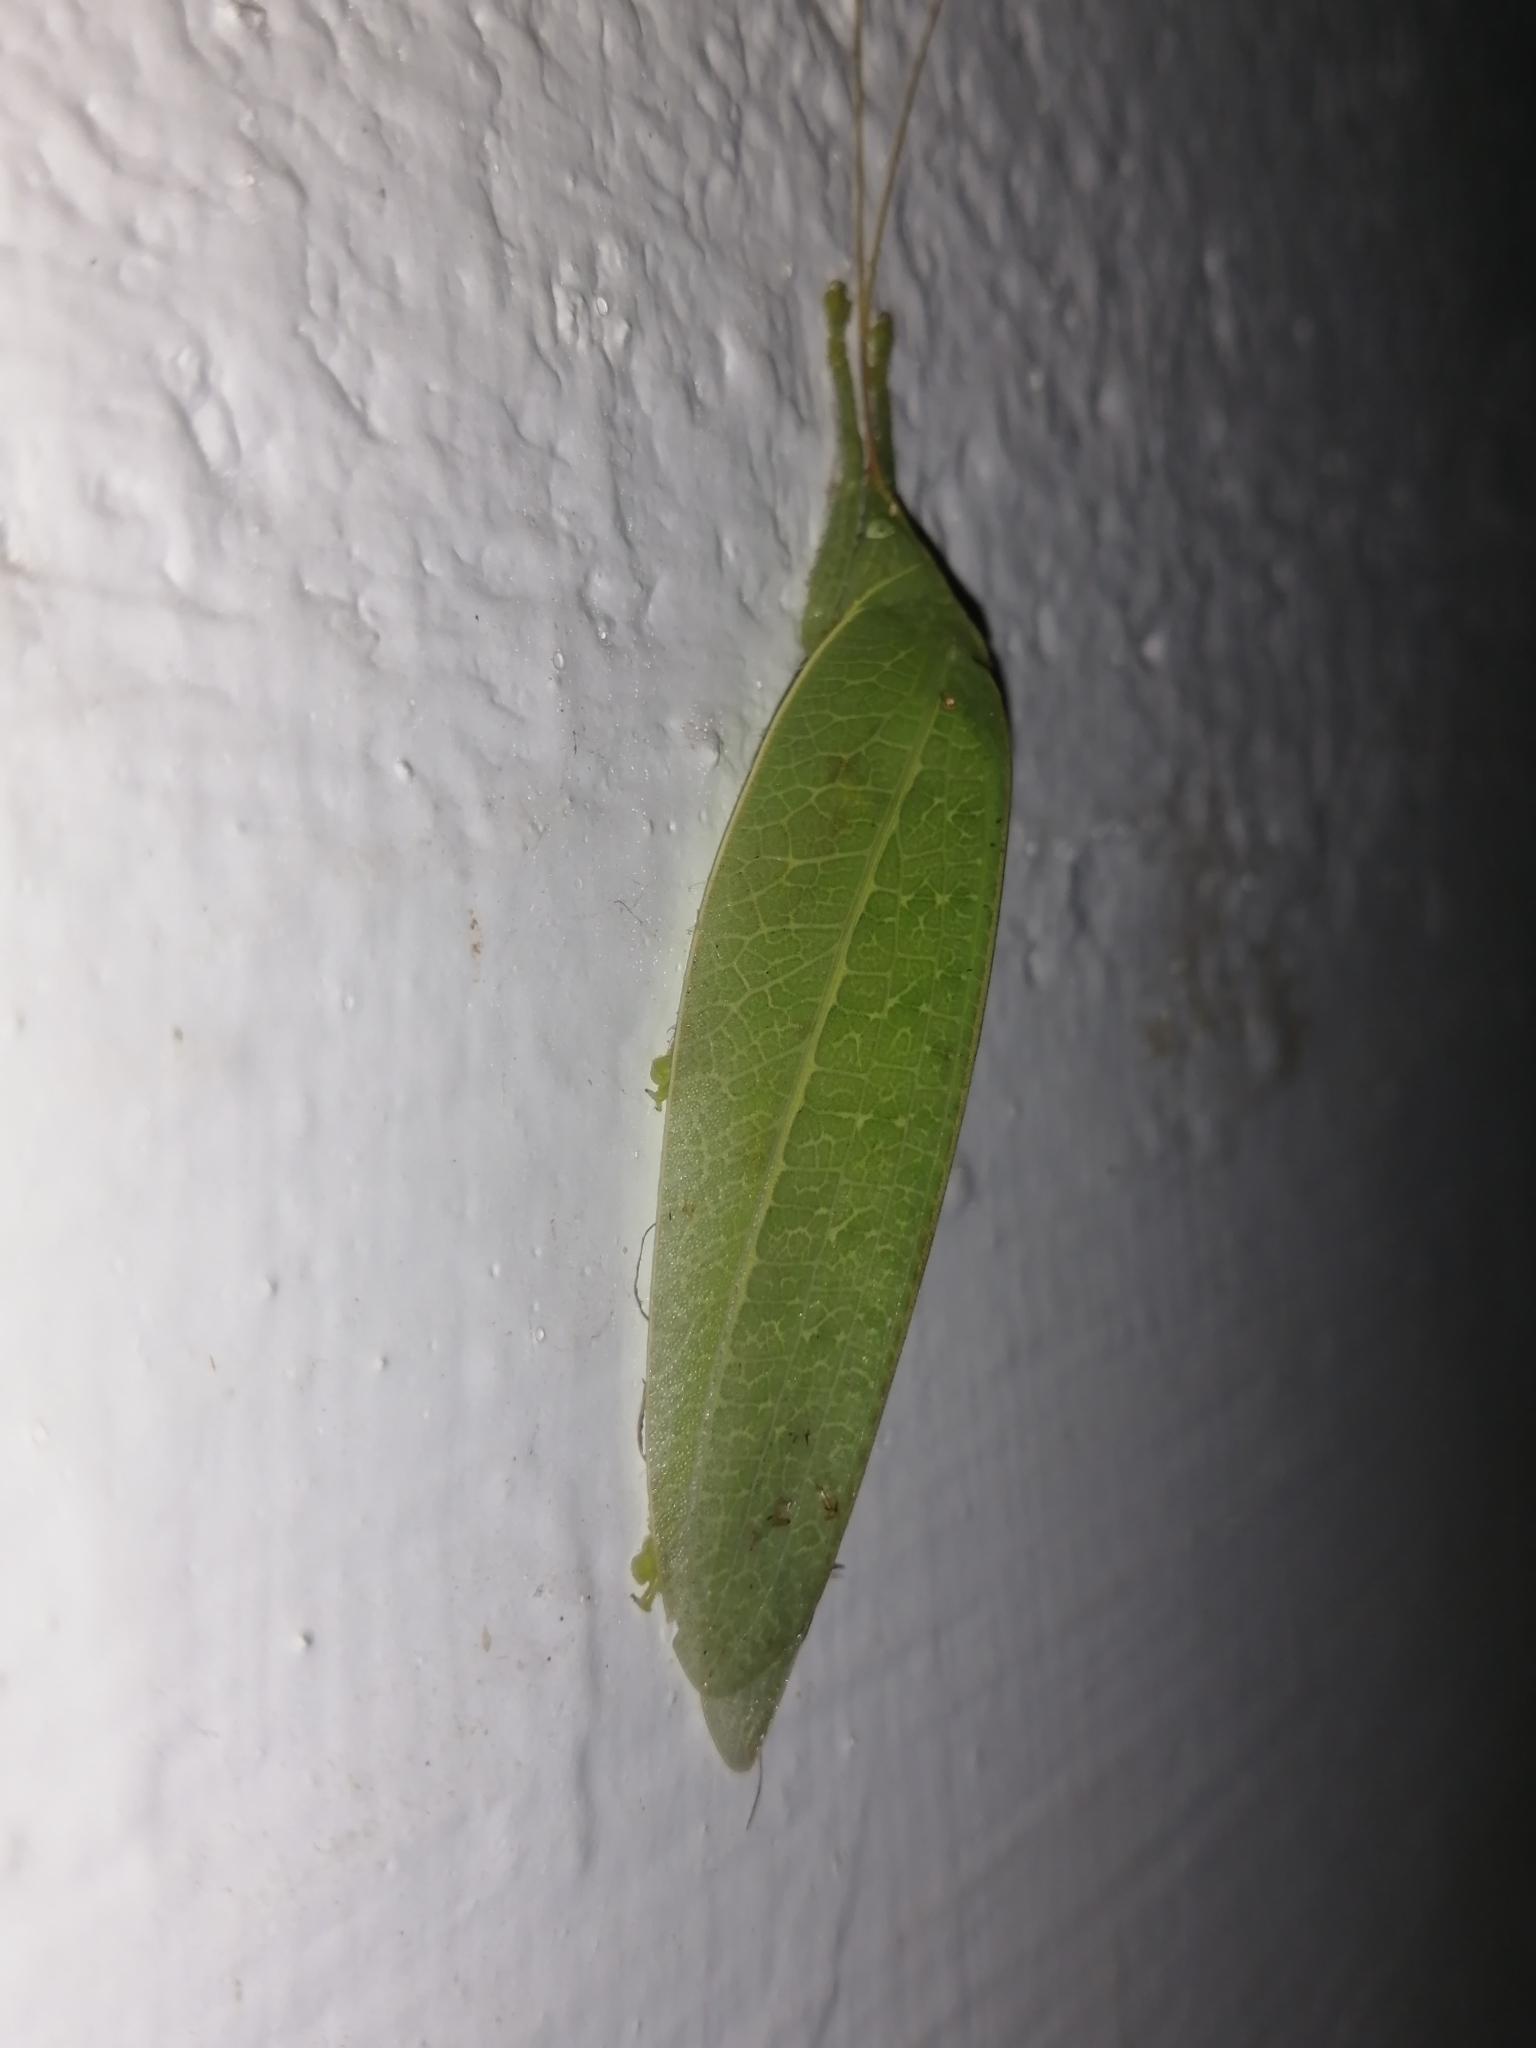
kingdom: Animalia
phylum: Arthropoda
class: Insecta
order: Orthoptera
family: Tettigoniidae
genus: Paramorsimus
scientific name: Paramorsimus oleifolius
